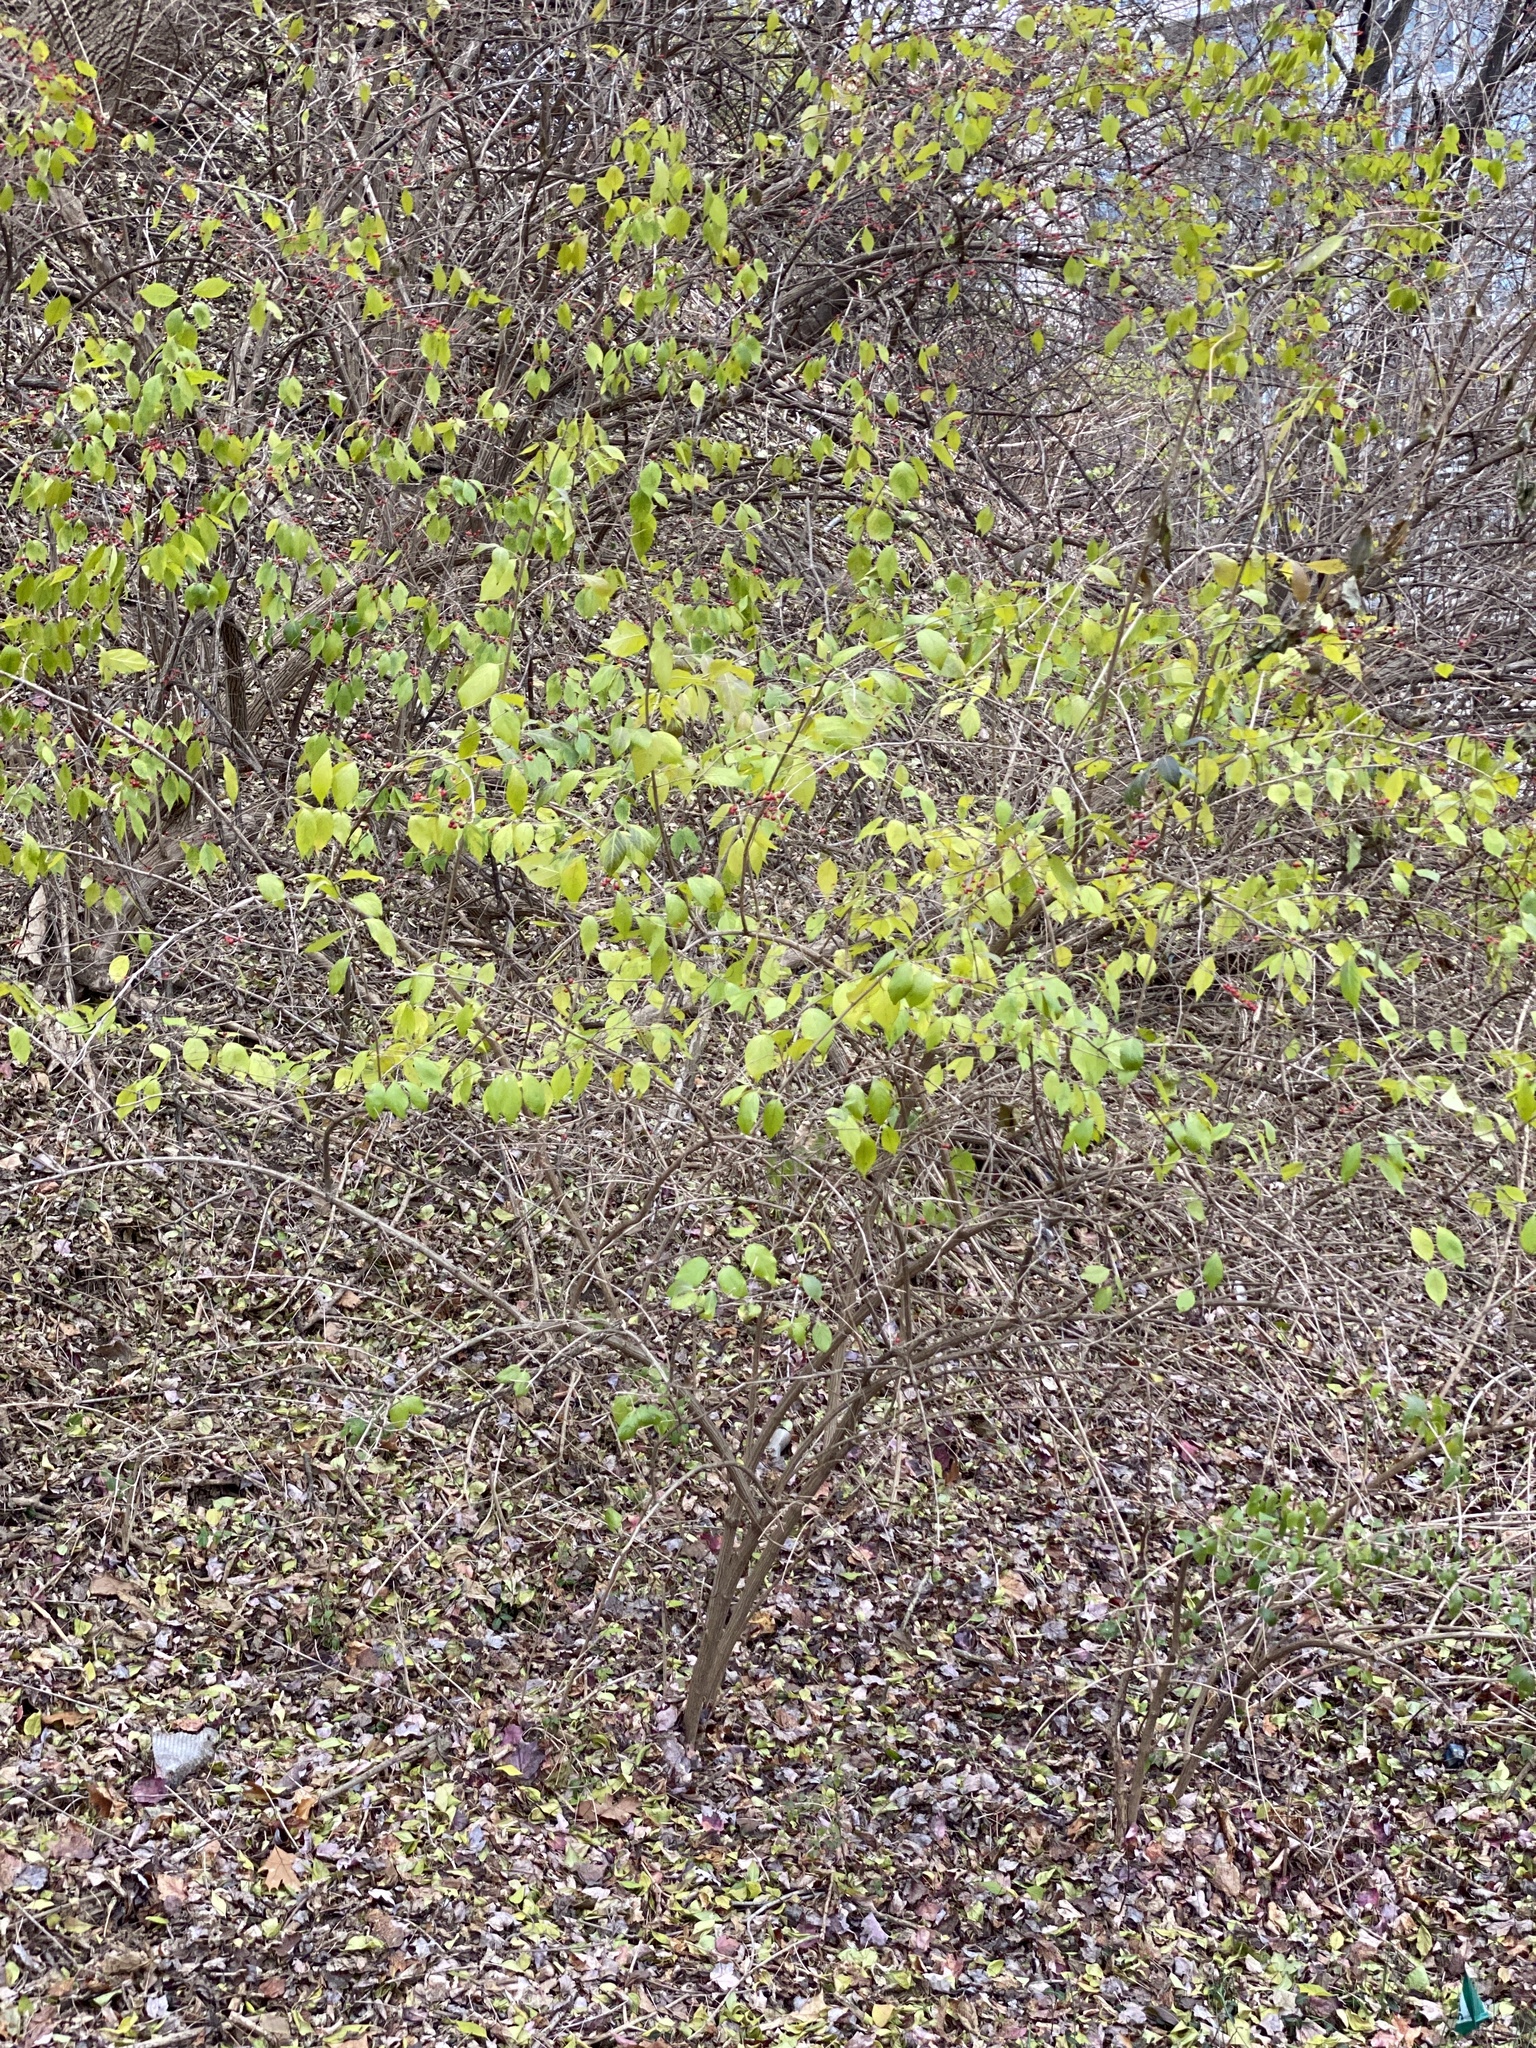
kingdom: Plantae
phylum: Tracheophyta
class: Magnoliopsida
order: Dipsacales
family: Caprifoliaceae
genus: Lonicera
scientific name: Lonicera maackii
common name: Amur honeysuckle
